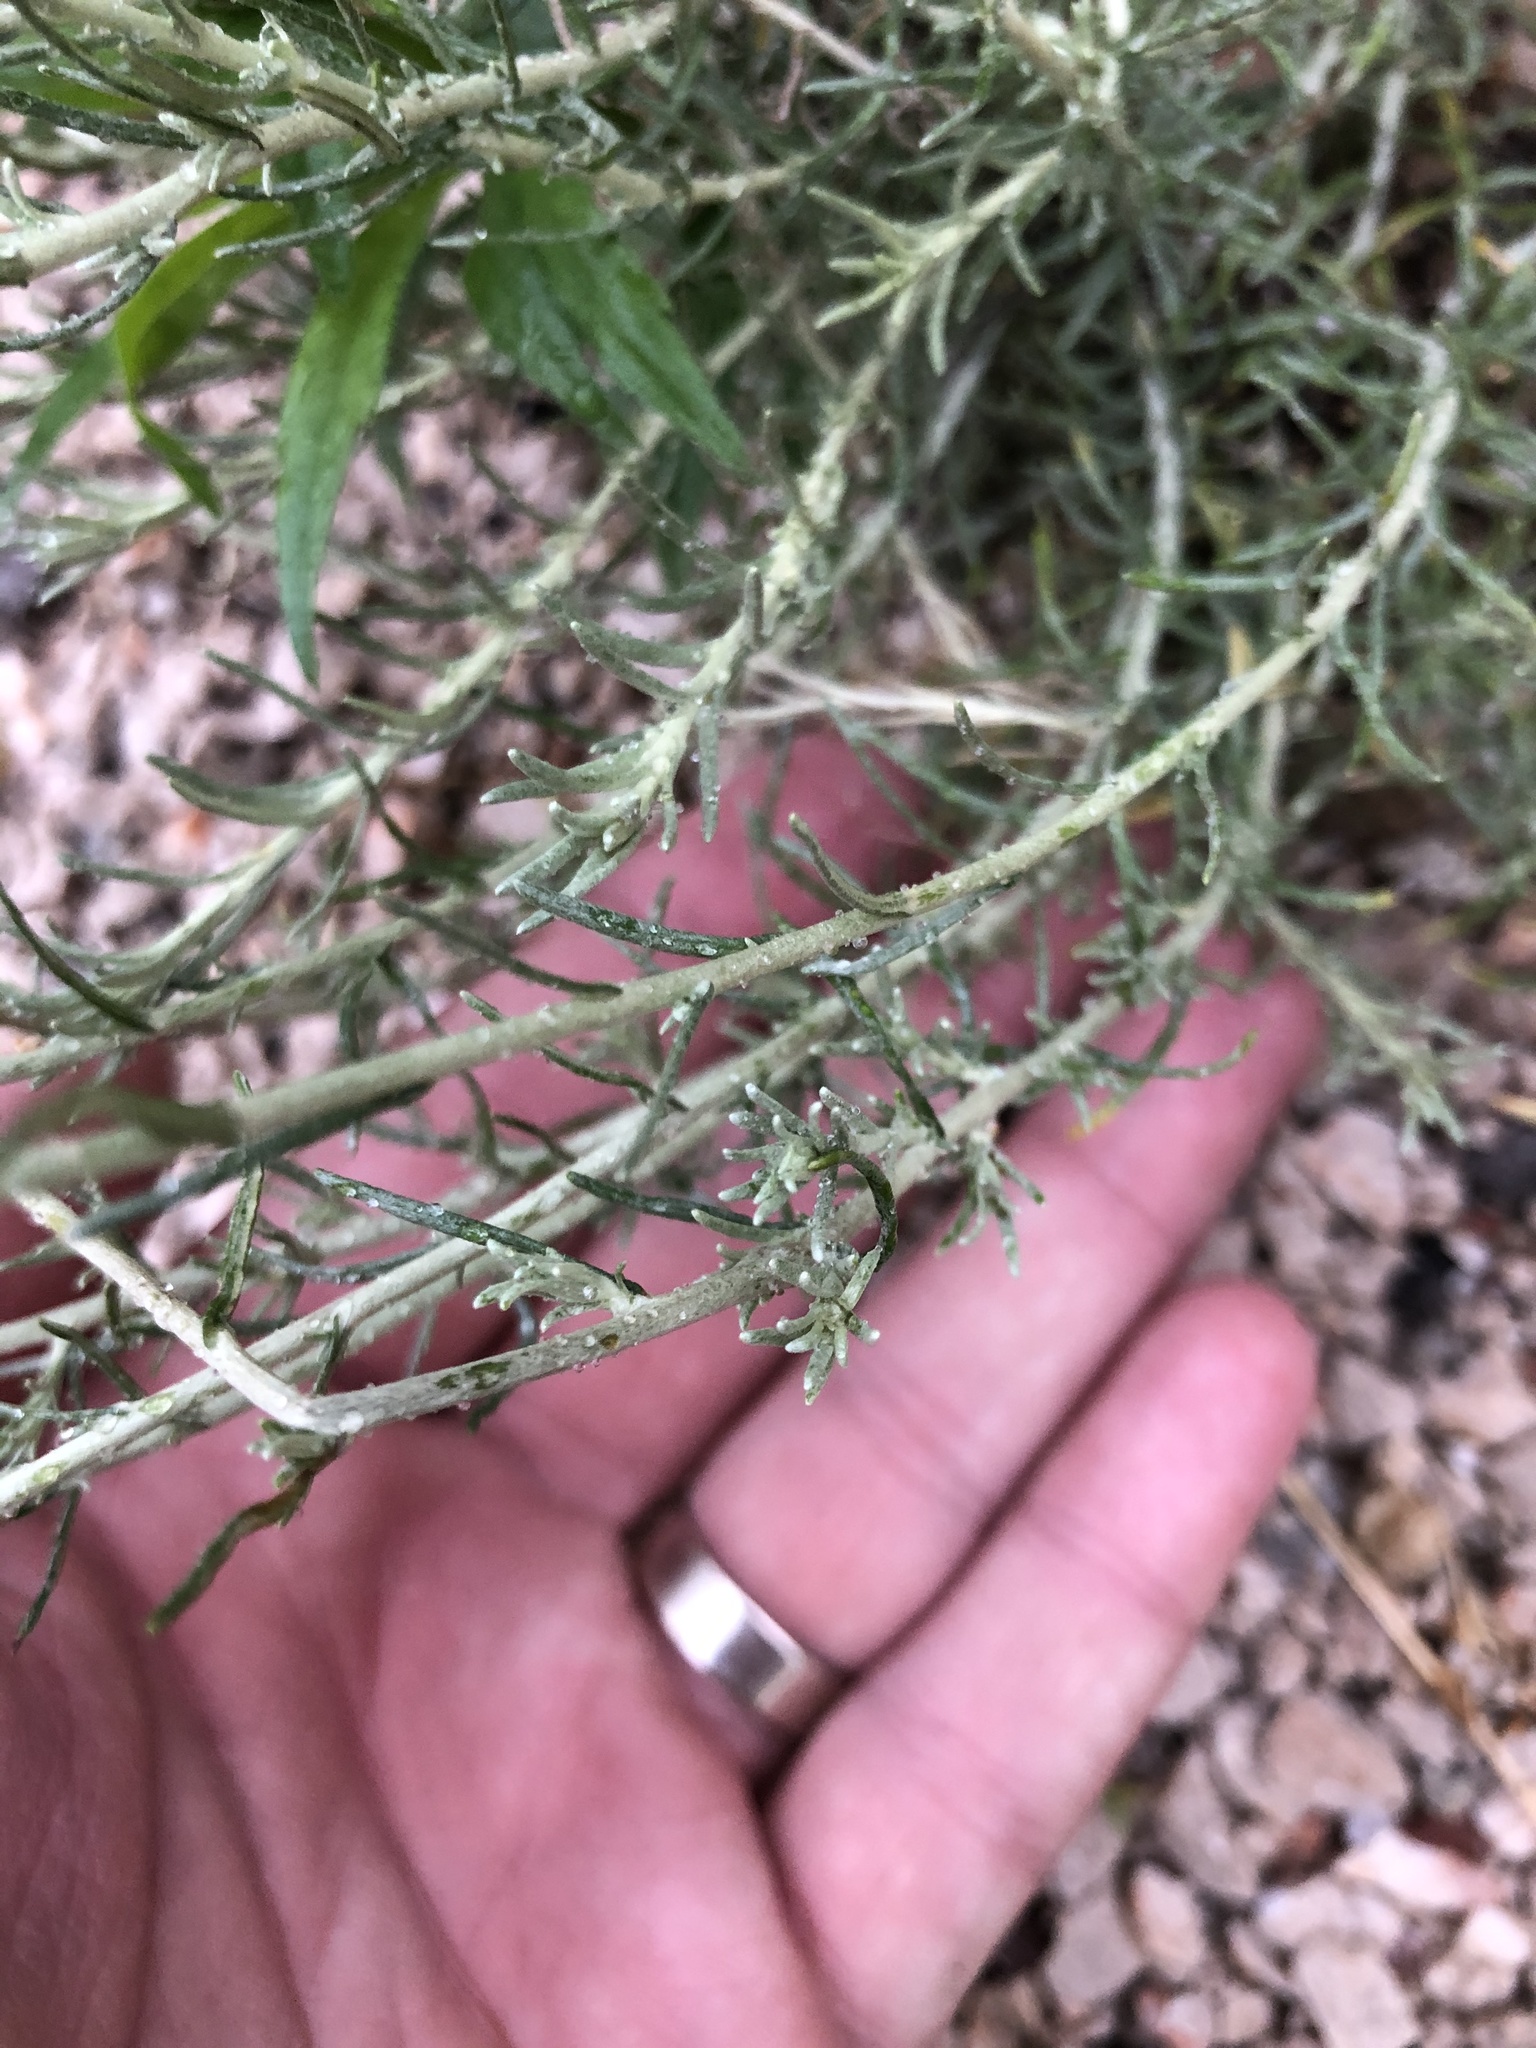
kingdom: Plantae
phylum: Tracheophyta
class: Magnoliopsida
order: Asterales
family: Asteraceae
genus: Helichrysum
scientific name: Helichrysum italicum
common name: Curryplant
